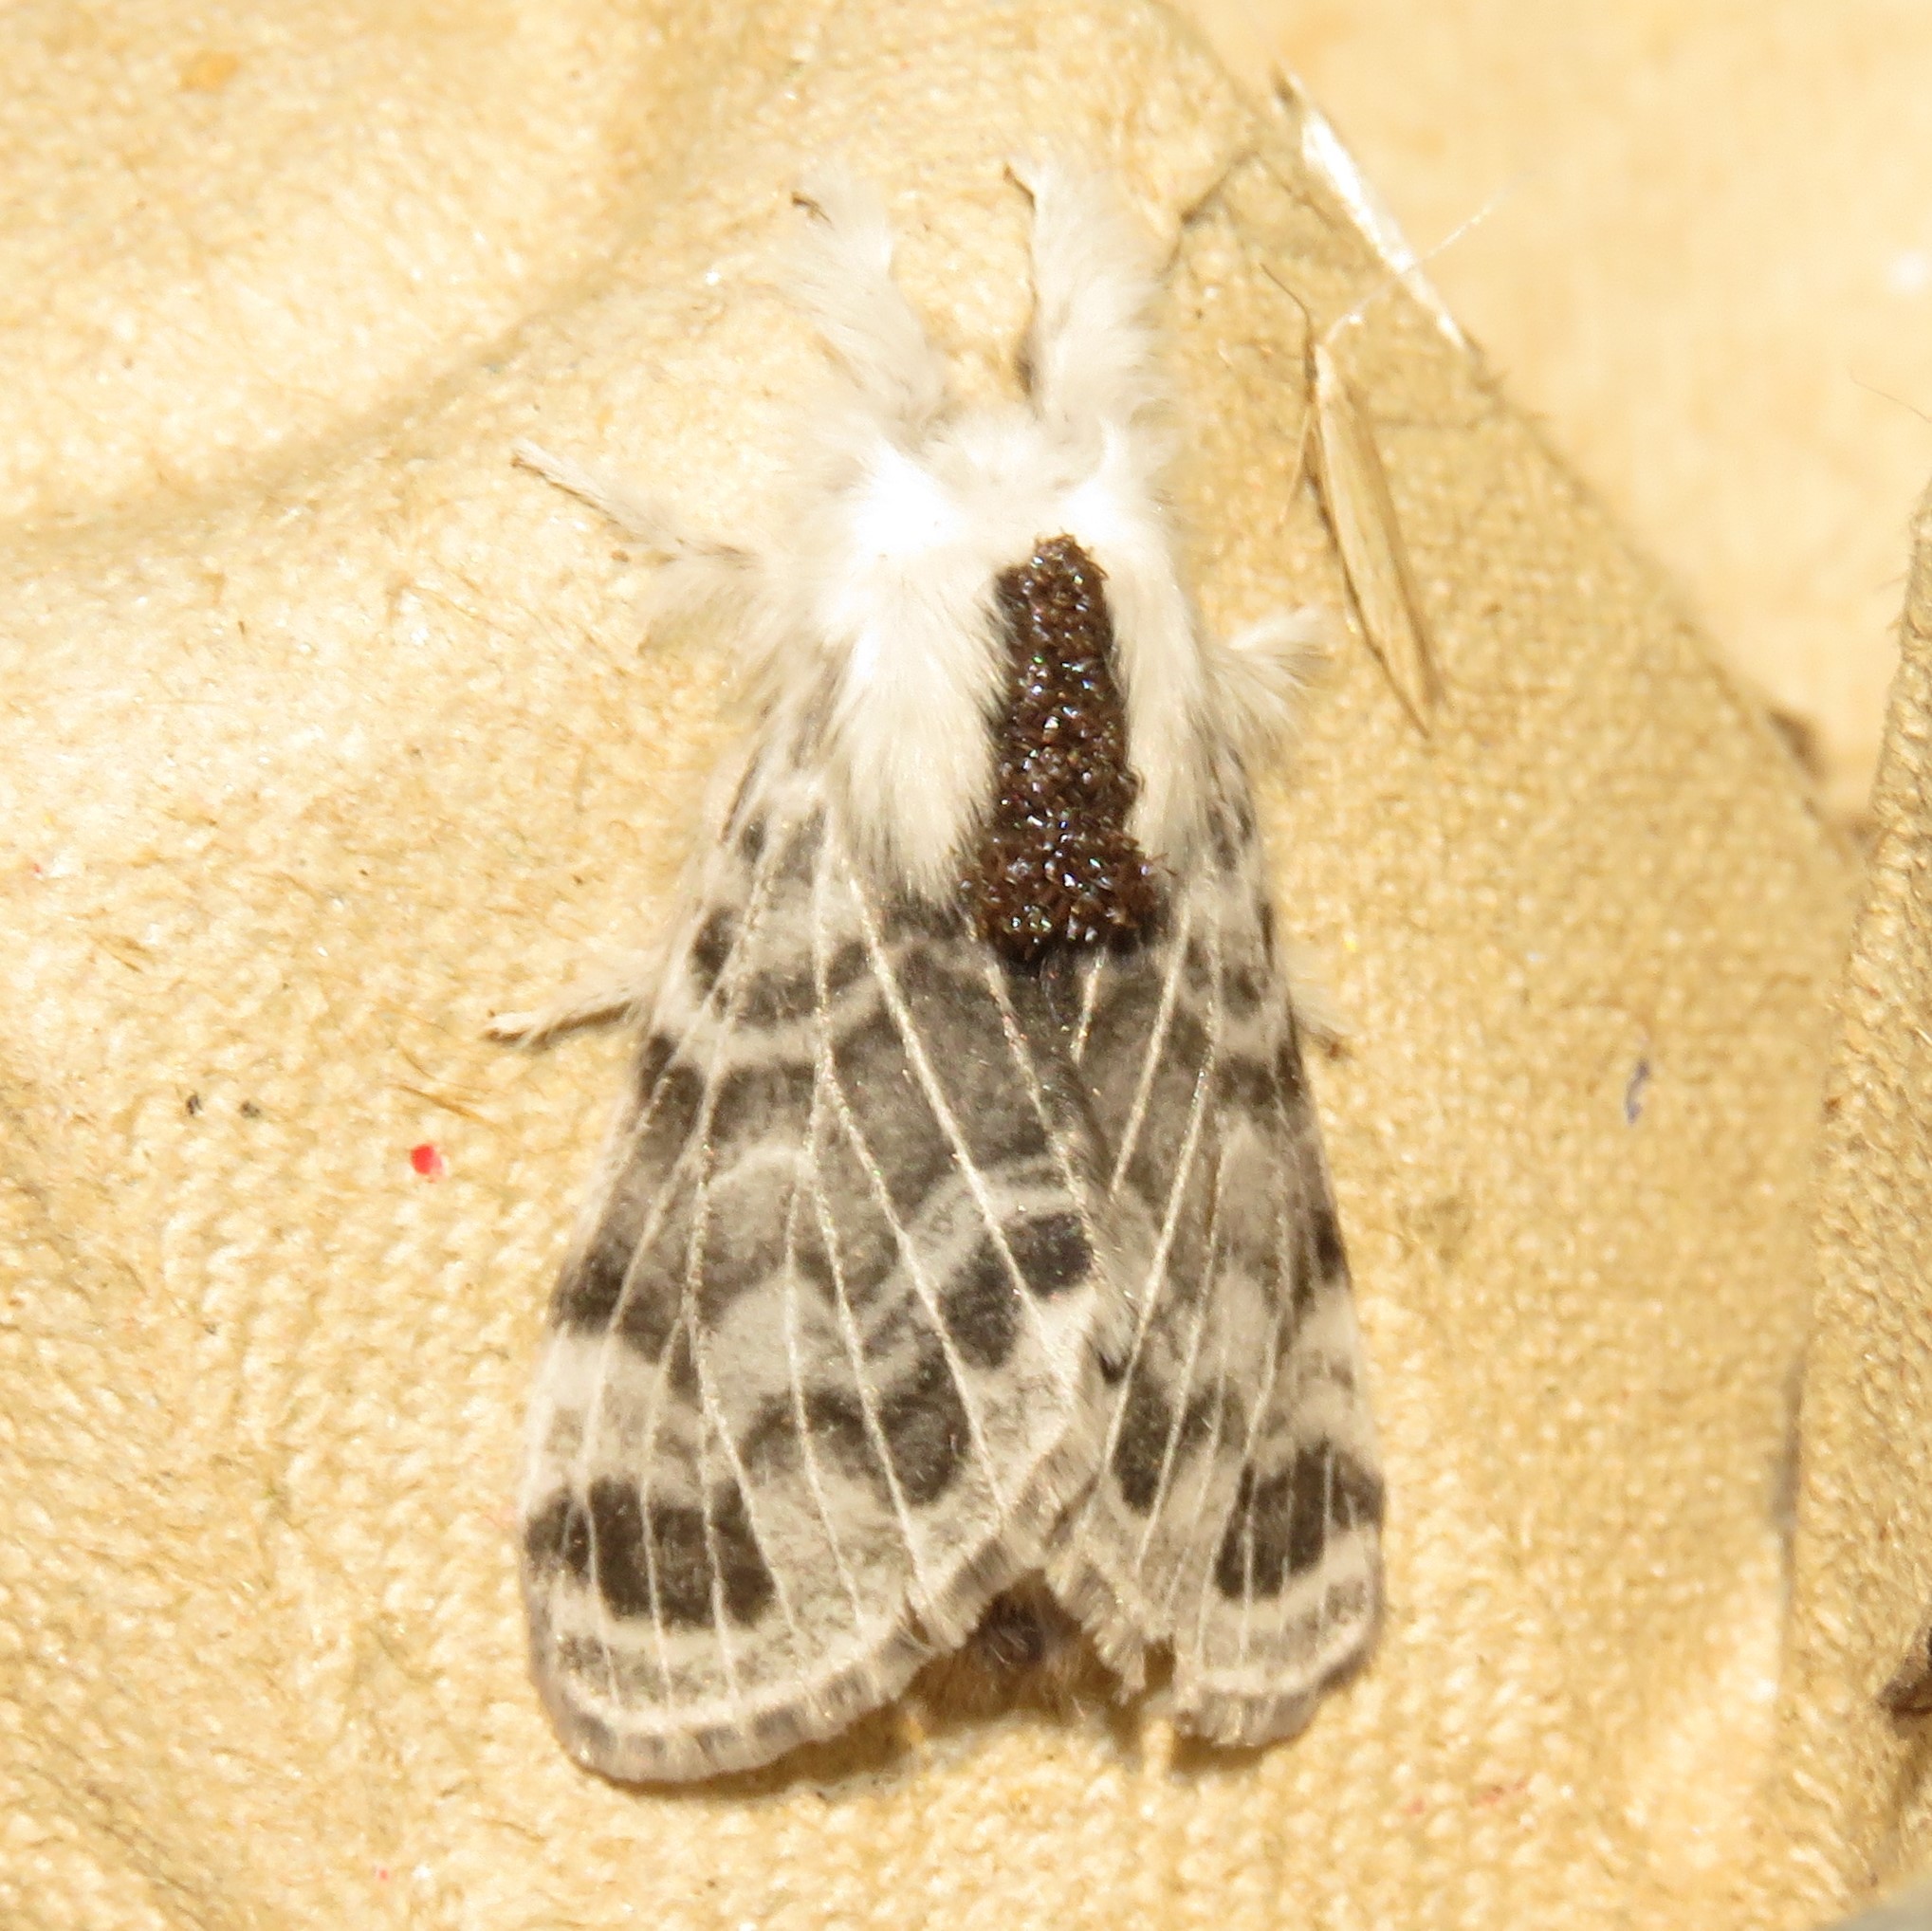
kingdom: Animalia
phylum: Arthropoda
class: Insecta
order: Lepidoptera
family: Lasiocampidae
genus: Tolype
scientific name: Tolype velleda
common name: Large tolype moth
